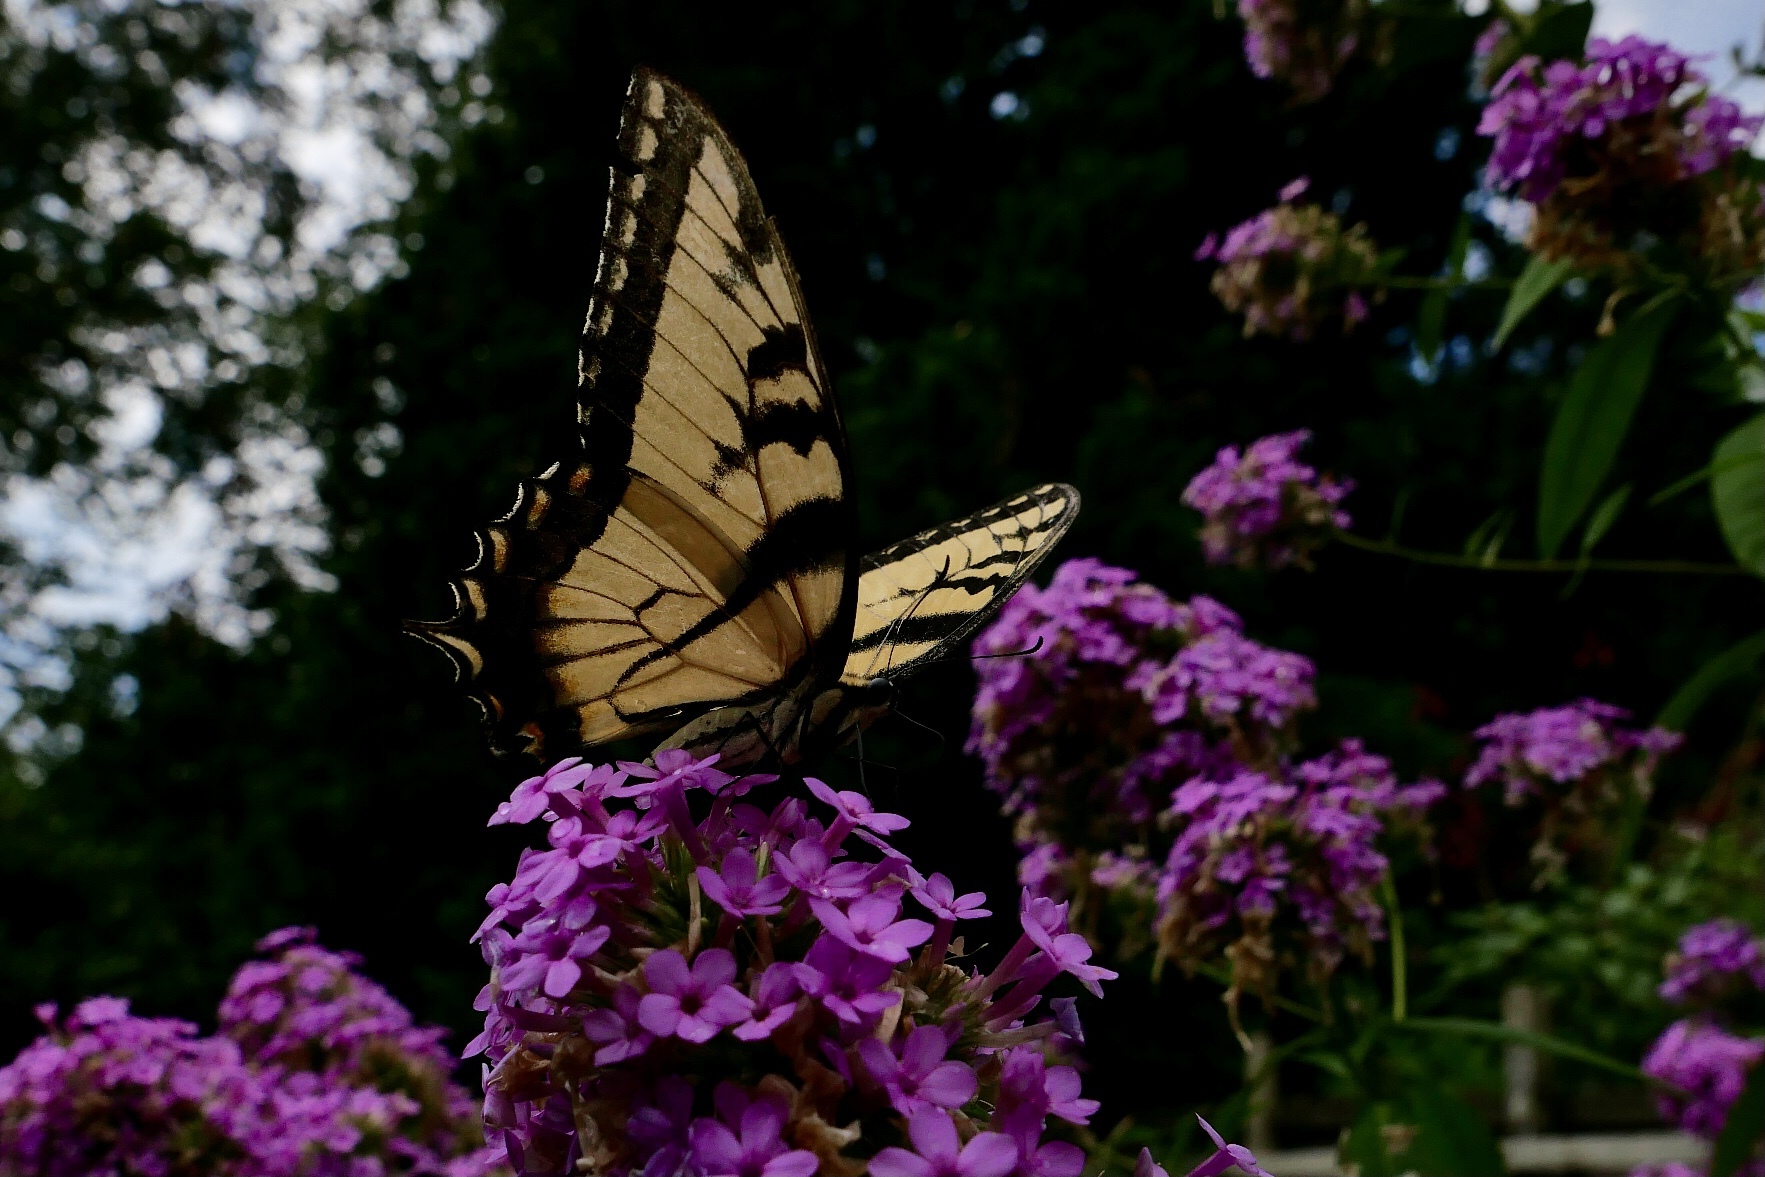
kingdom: Animalia
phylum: Arthropoda
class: Insecta
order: Lepidoptera
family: Papilionidae
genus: Papilio
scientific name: Papilio glaucus
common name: Tiger swallowtail
